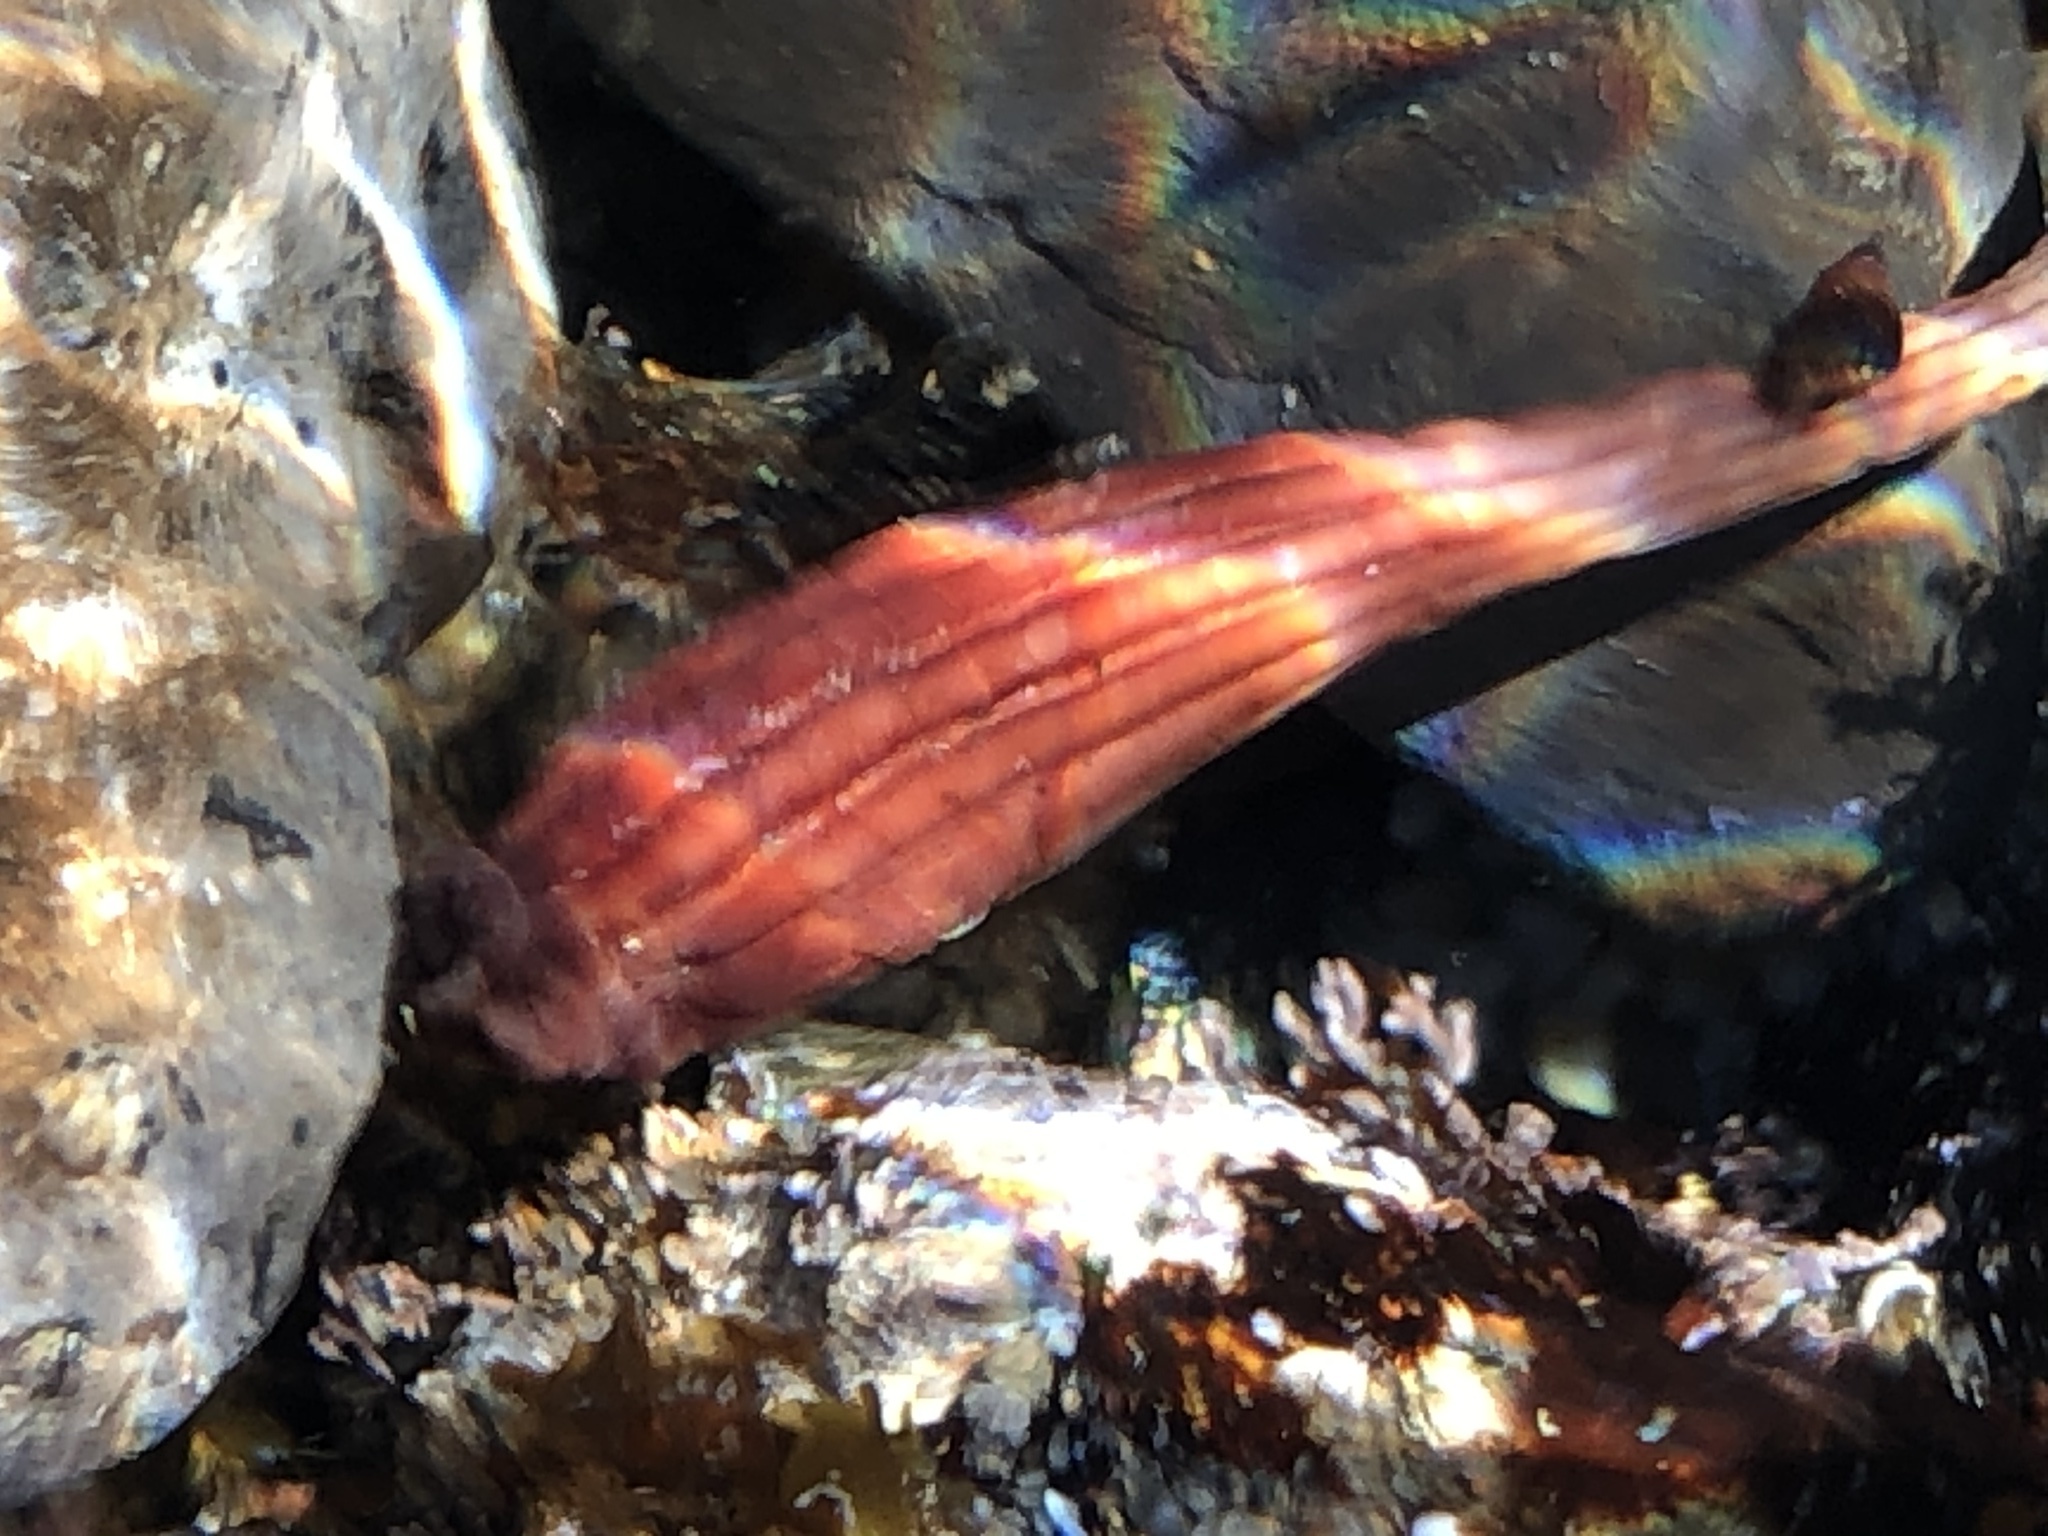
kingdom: Animalia
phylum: Chordata
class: Ascidiacea
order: Stolidobranchia
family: Styelidae
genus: Styela
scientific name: Styela montereyensis
